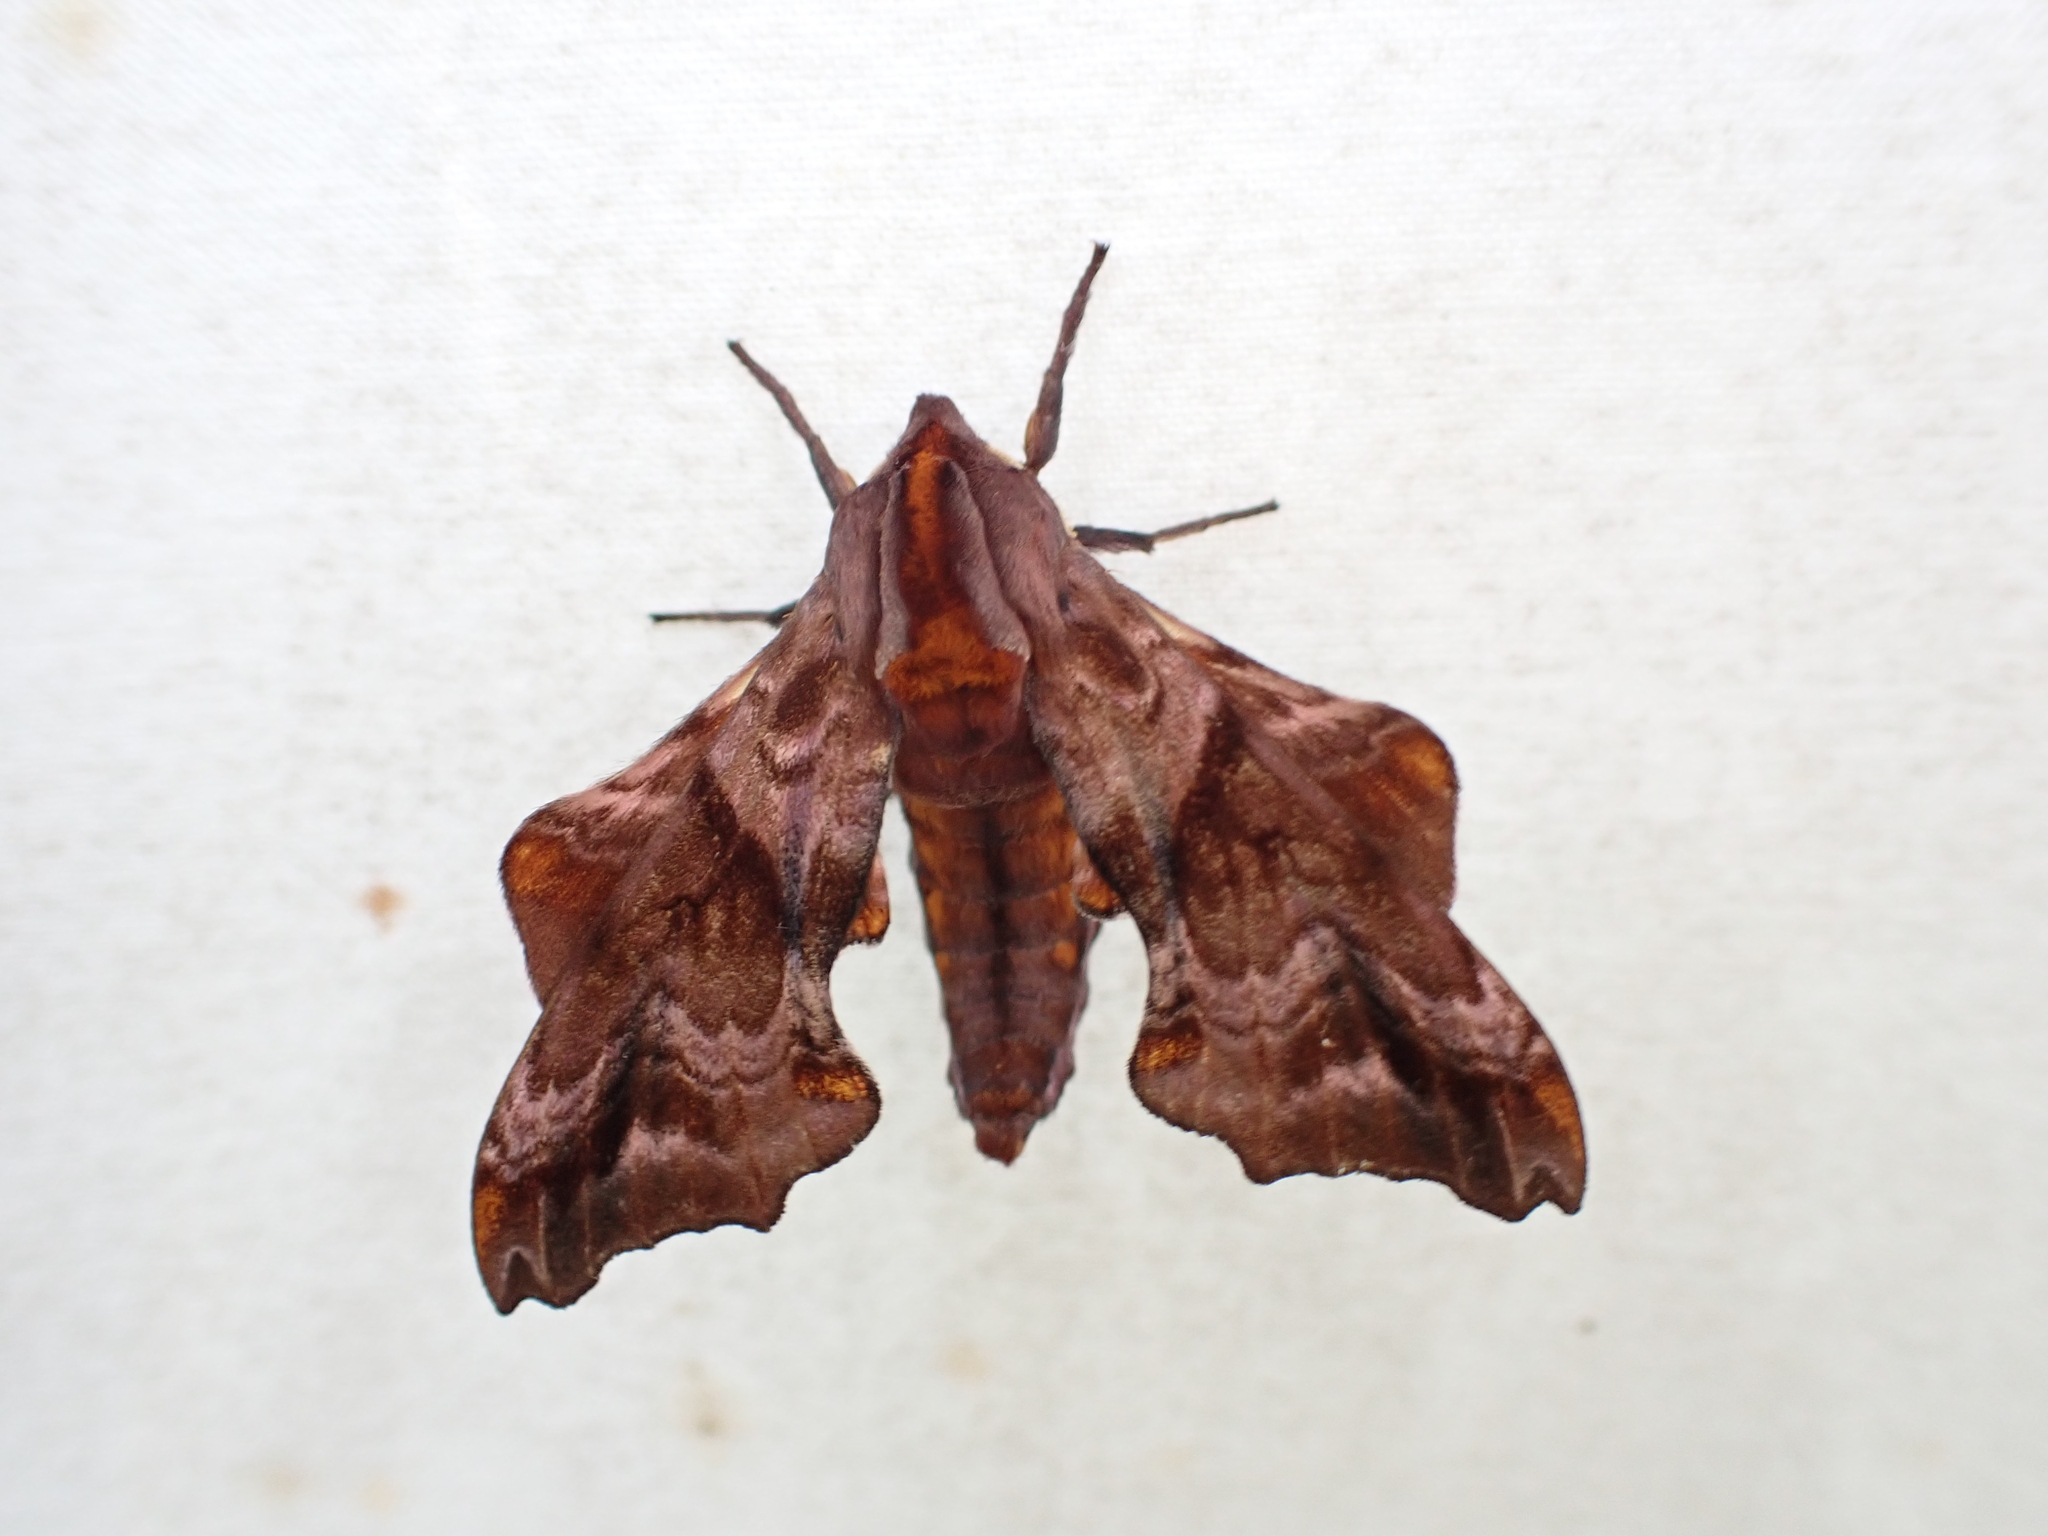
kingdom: Animalia
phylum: Arthropoda
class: Insecta
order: Lepidoptera
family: Sphingidae
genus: Paonias
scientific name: Paonias myops
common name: Small-eyed sphinx
